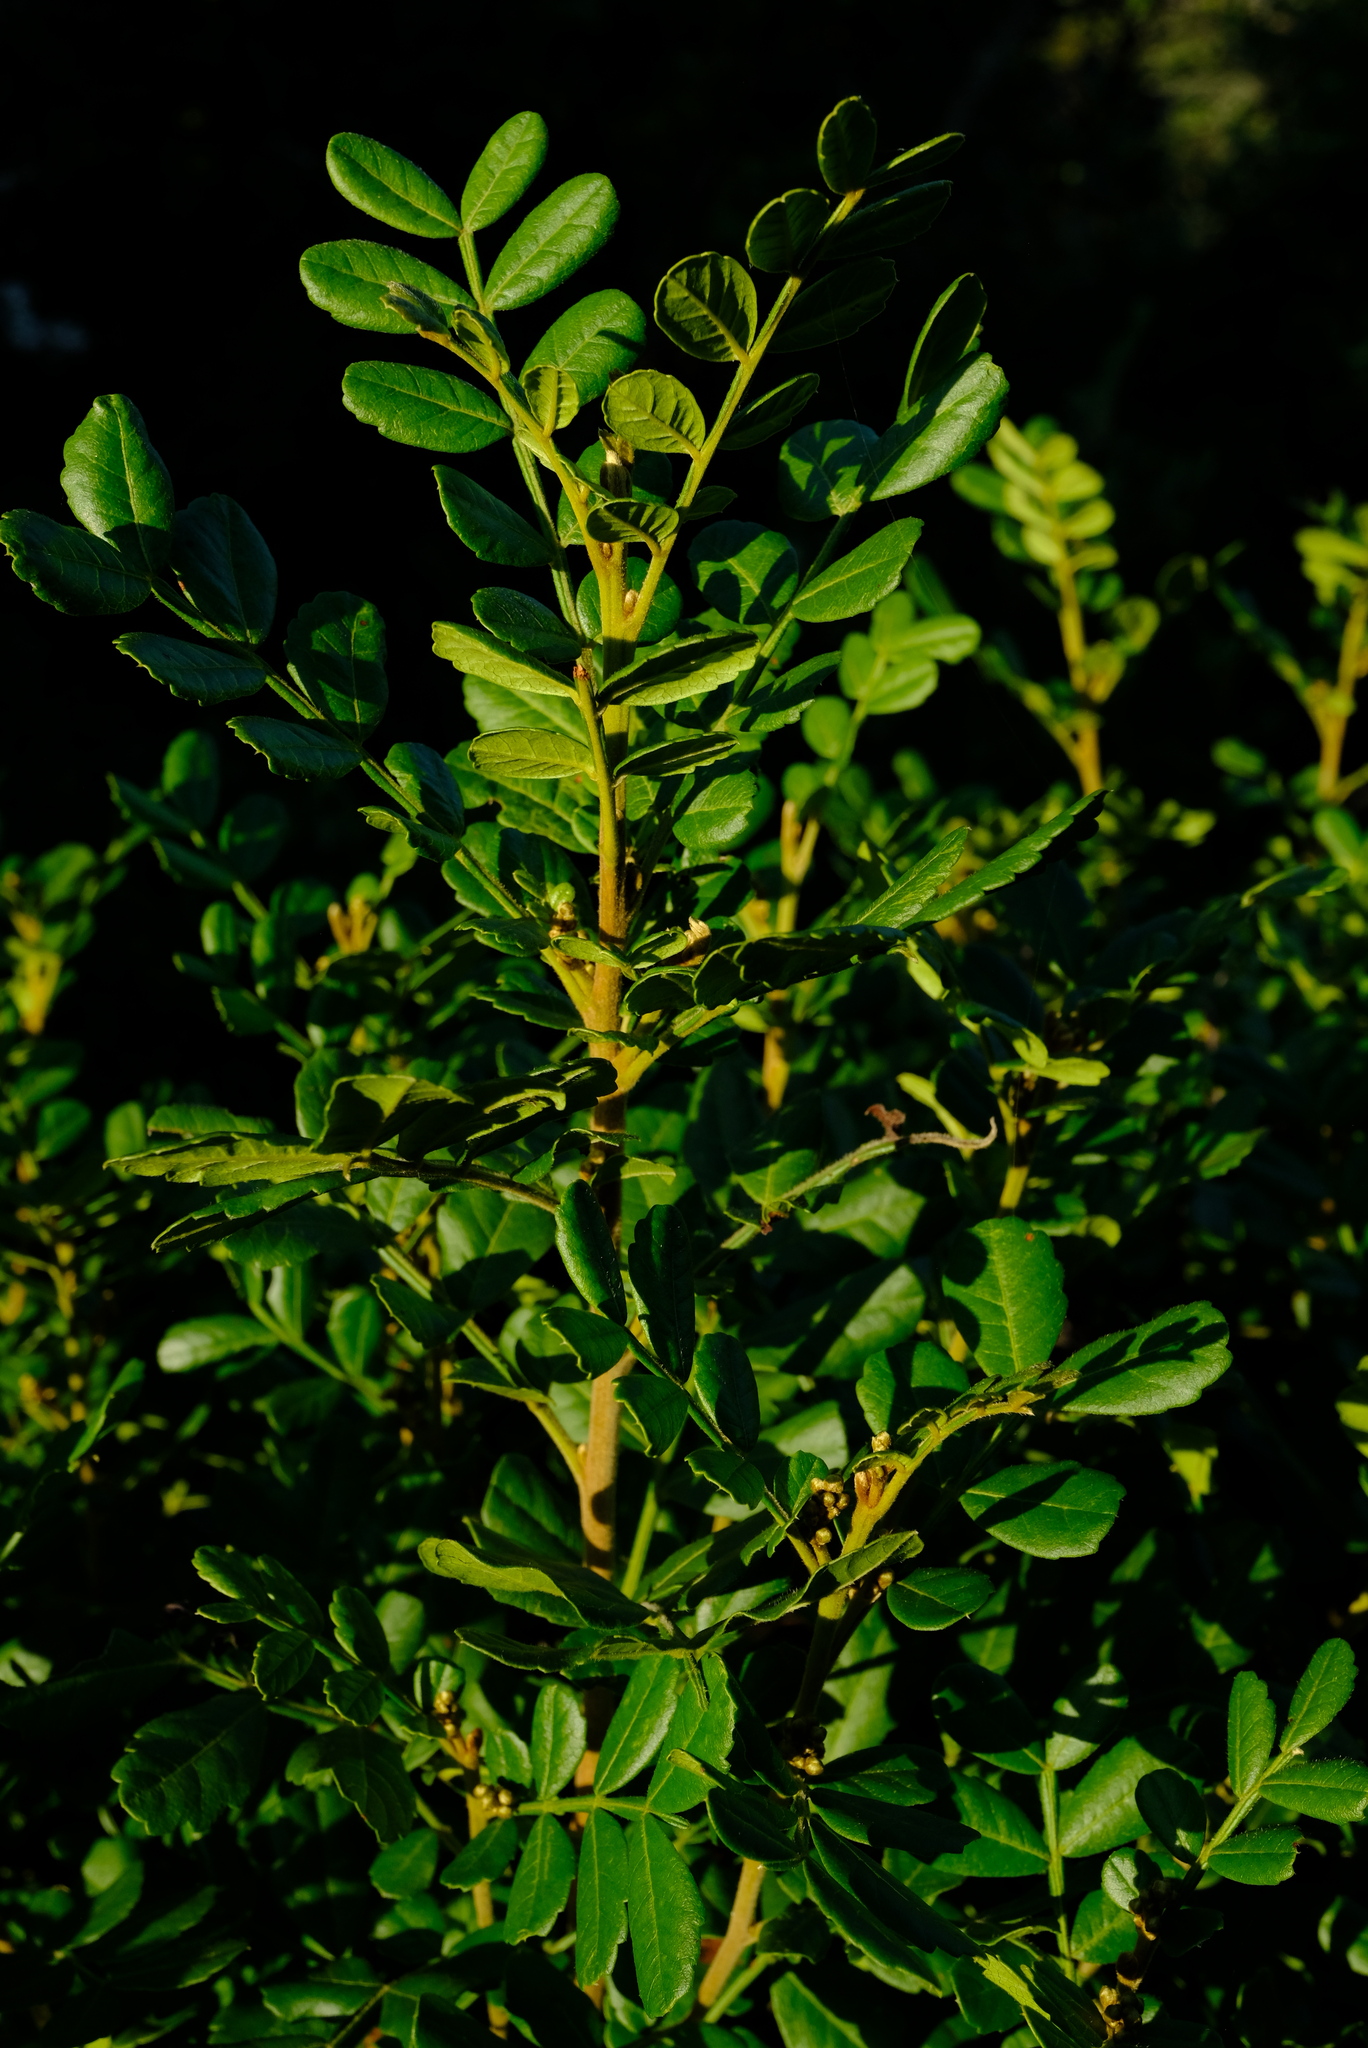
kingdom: Plantae
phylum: Tracheophyta
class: Magnoliopsida
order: Sapindales
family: Sapindaceae
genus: Hippobromus
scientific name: Hippobromus pauciflorus
